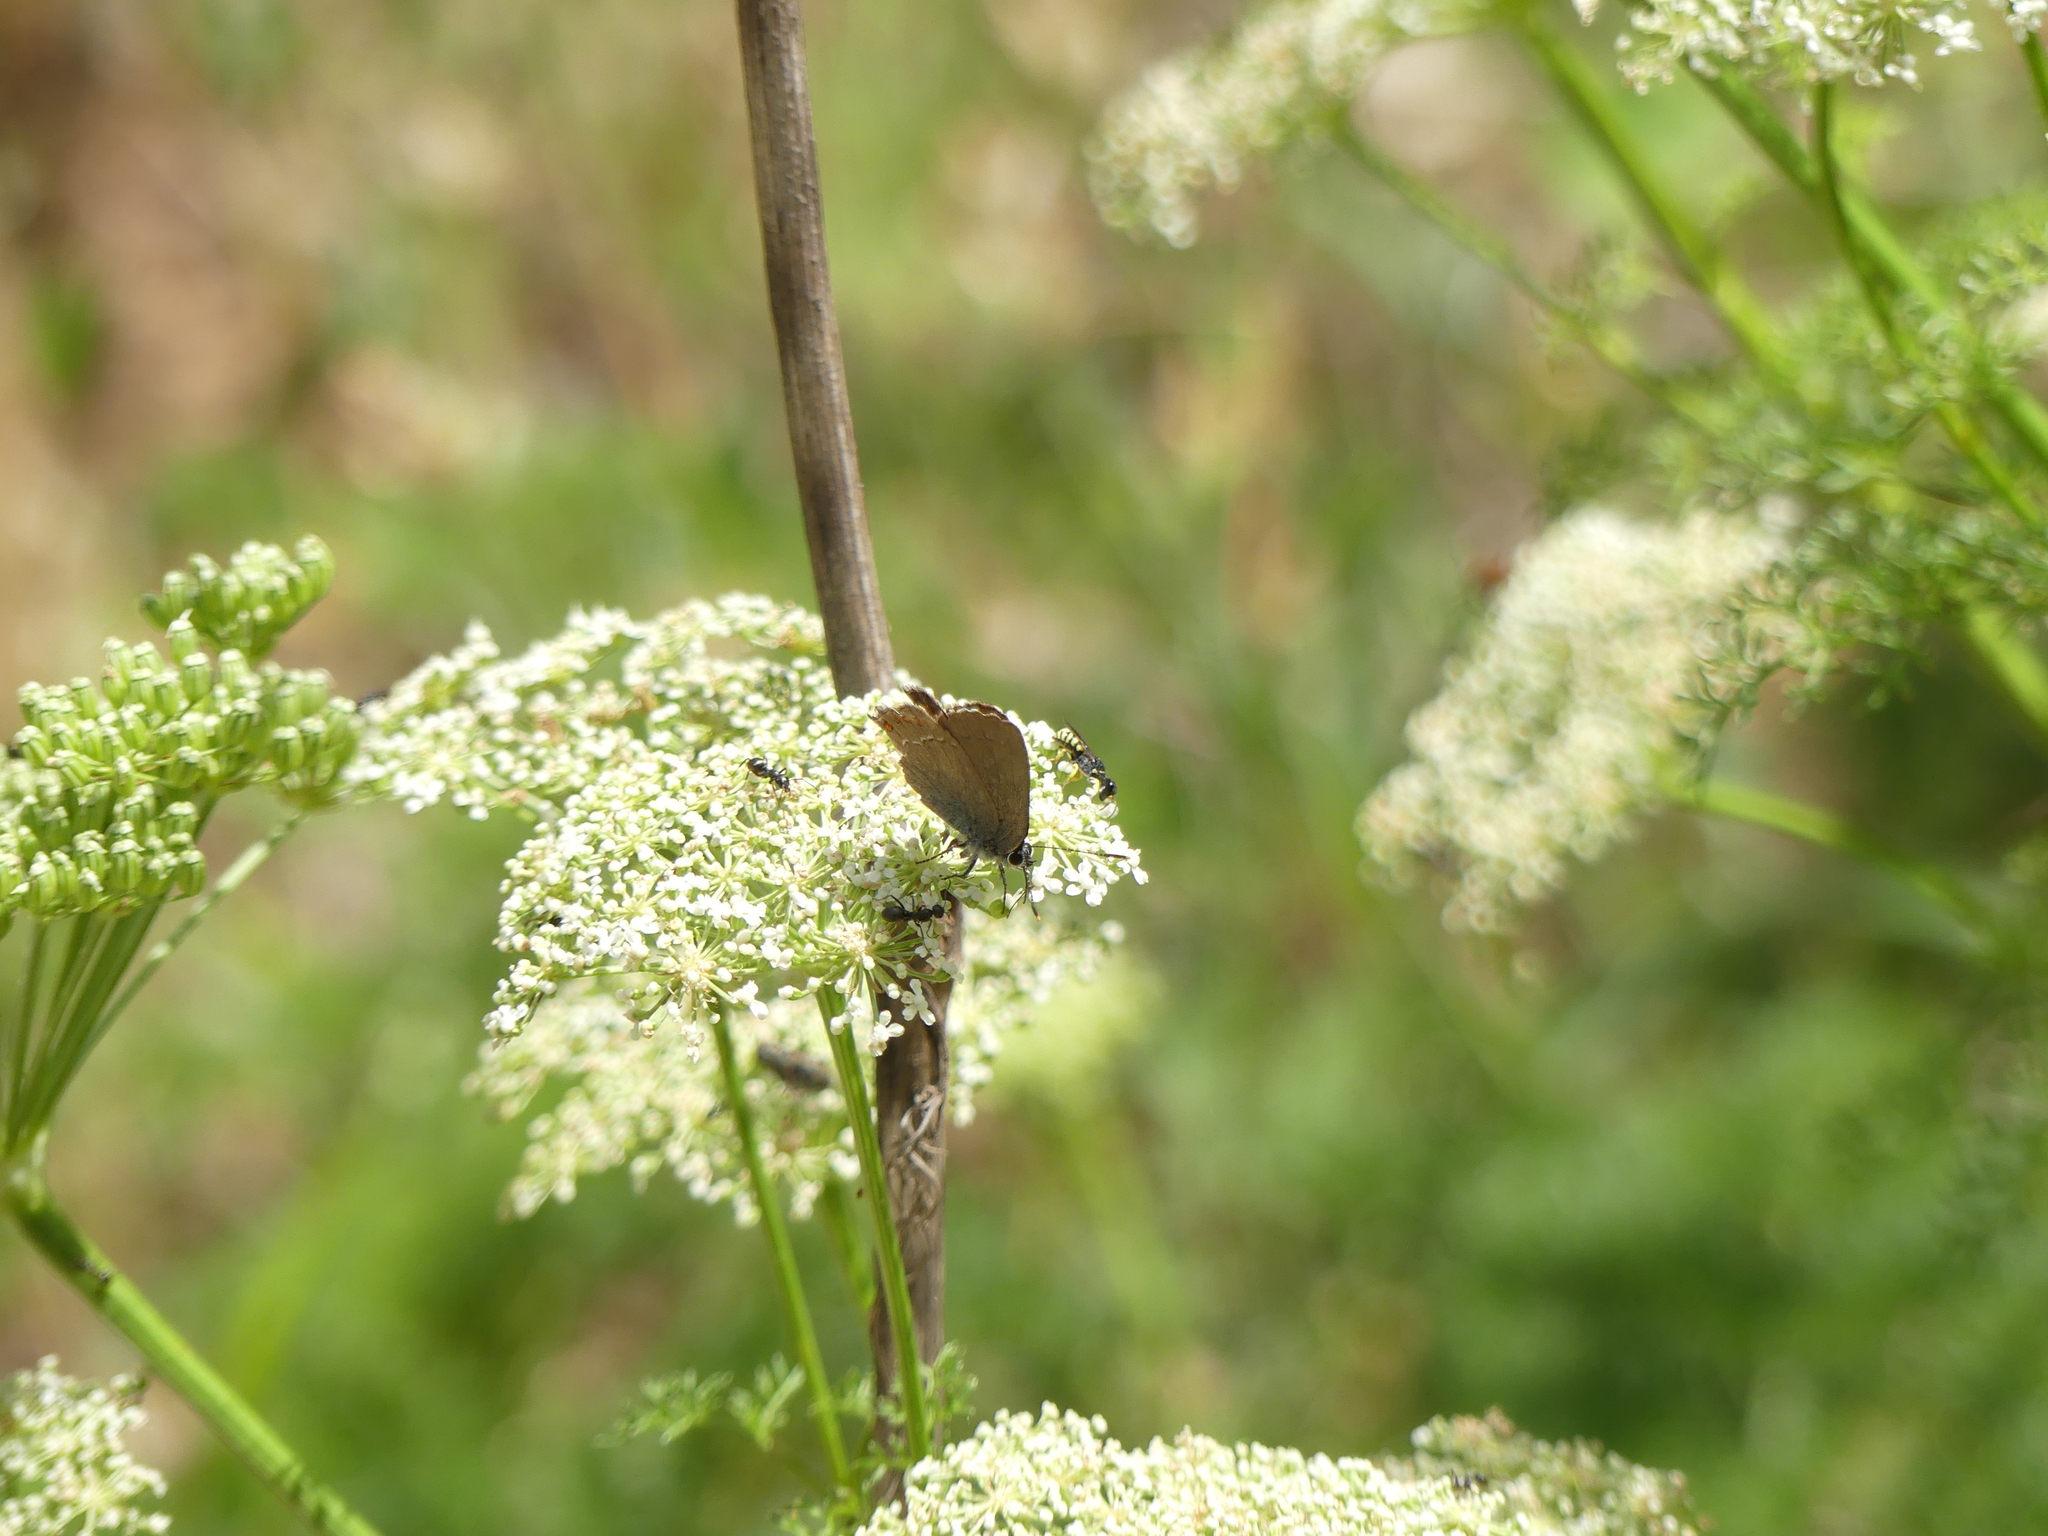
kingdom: Animalia
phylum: Arthropoda
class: Insecta
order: Lepidoptera
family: Lycaenidae
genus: Fixsenia
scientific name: Fixsenia esculi
